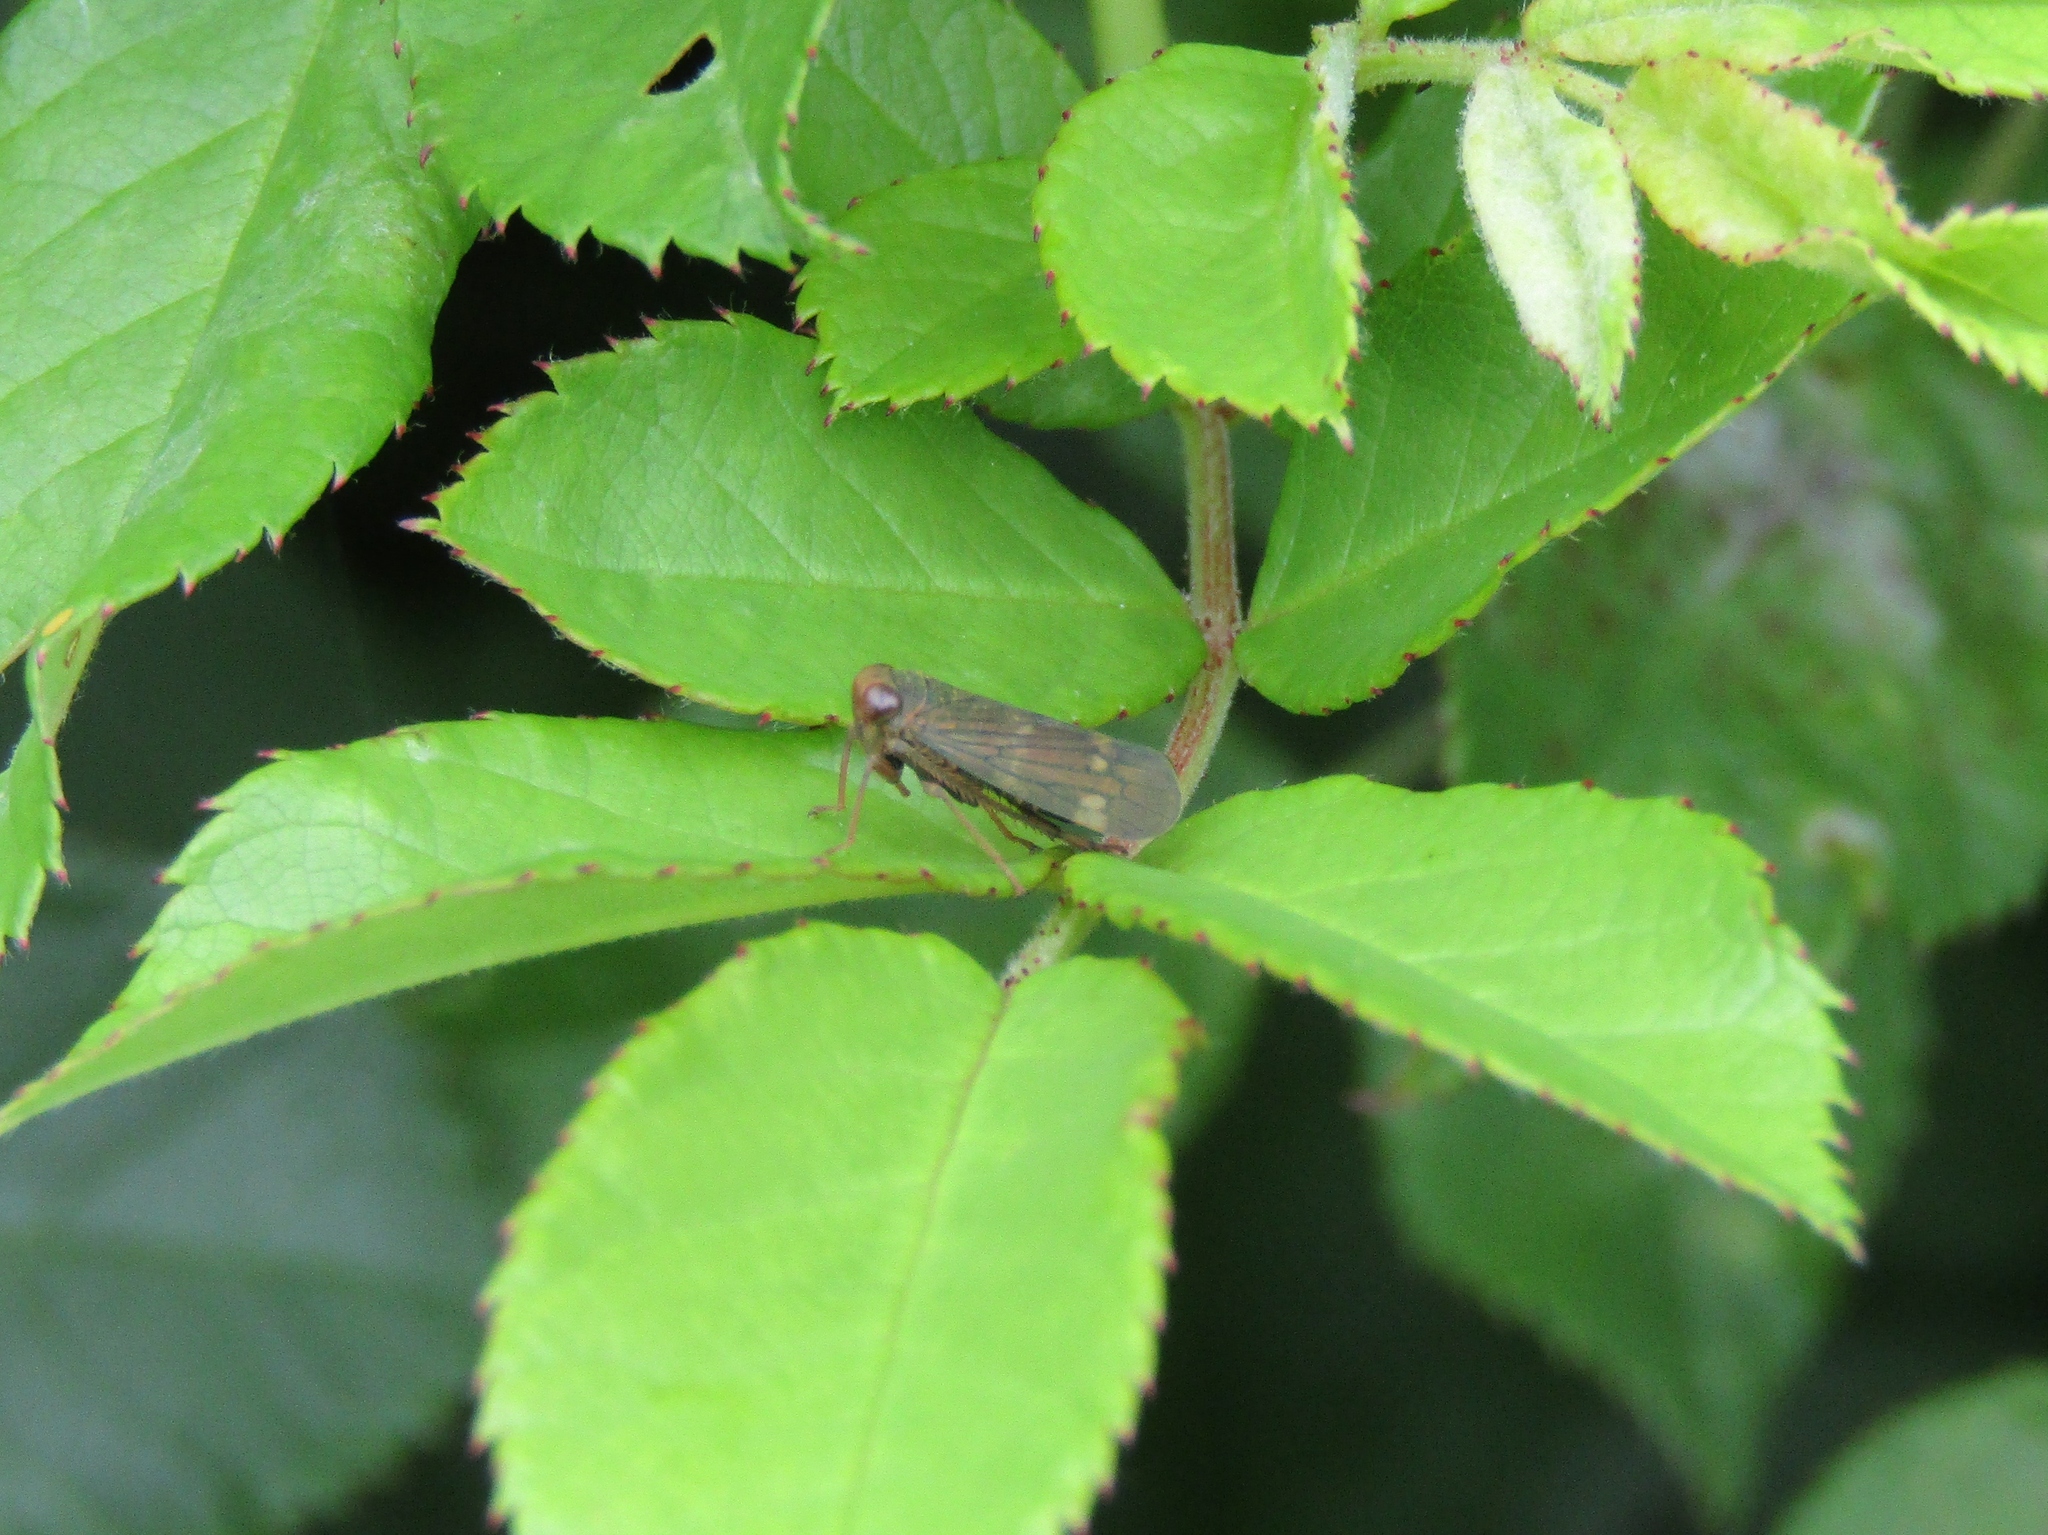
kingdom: Animalia
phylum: Arthropoda
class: Insecta
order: Hemiptera
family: Cicadellidae
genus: Jikradia
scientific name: Jikradia olitoria
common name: Coppery leafhopper
